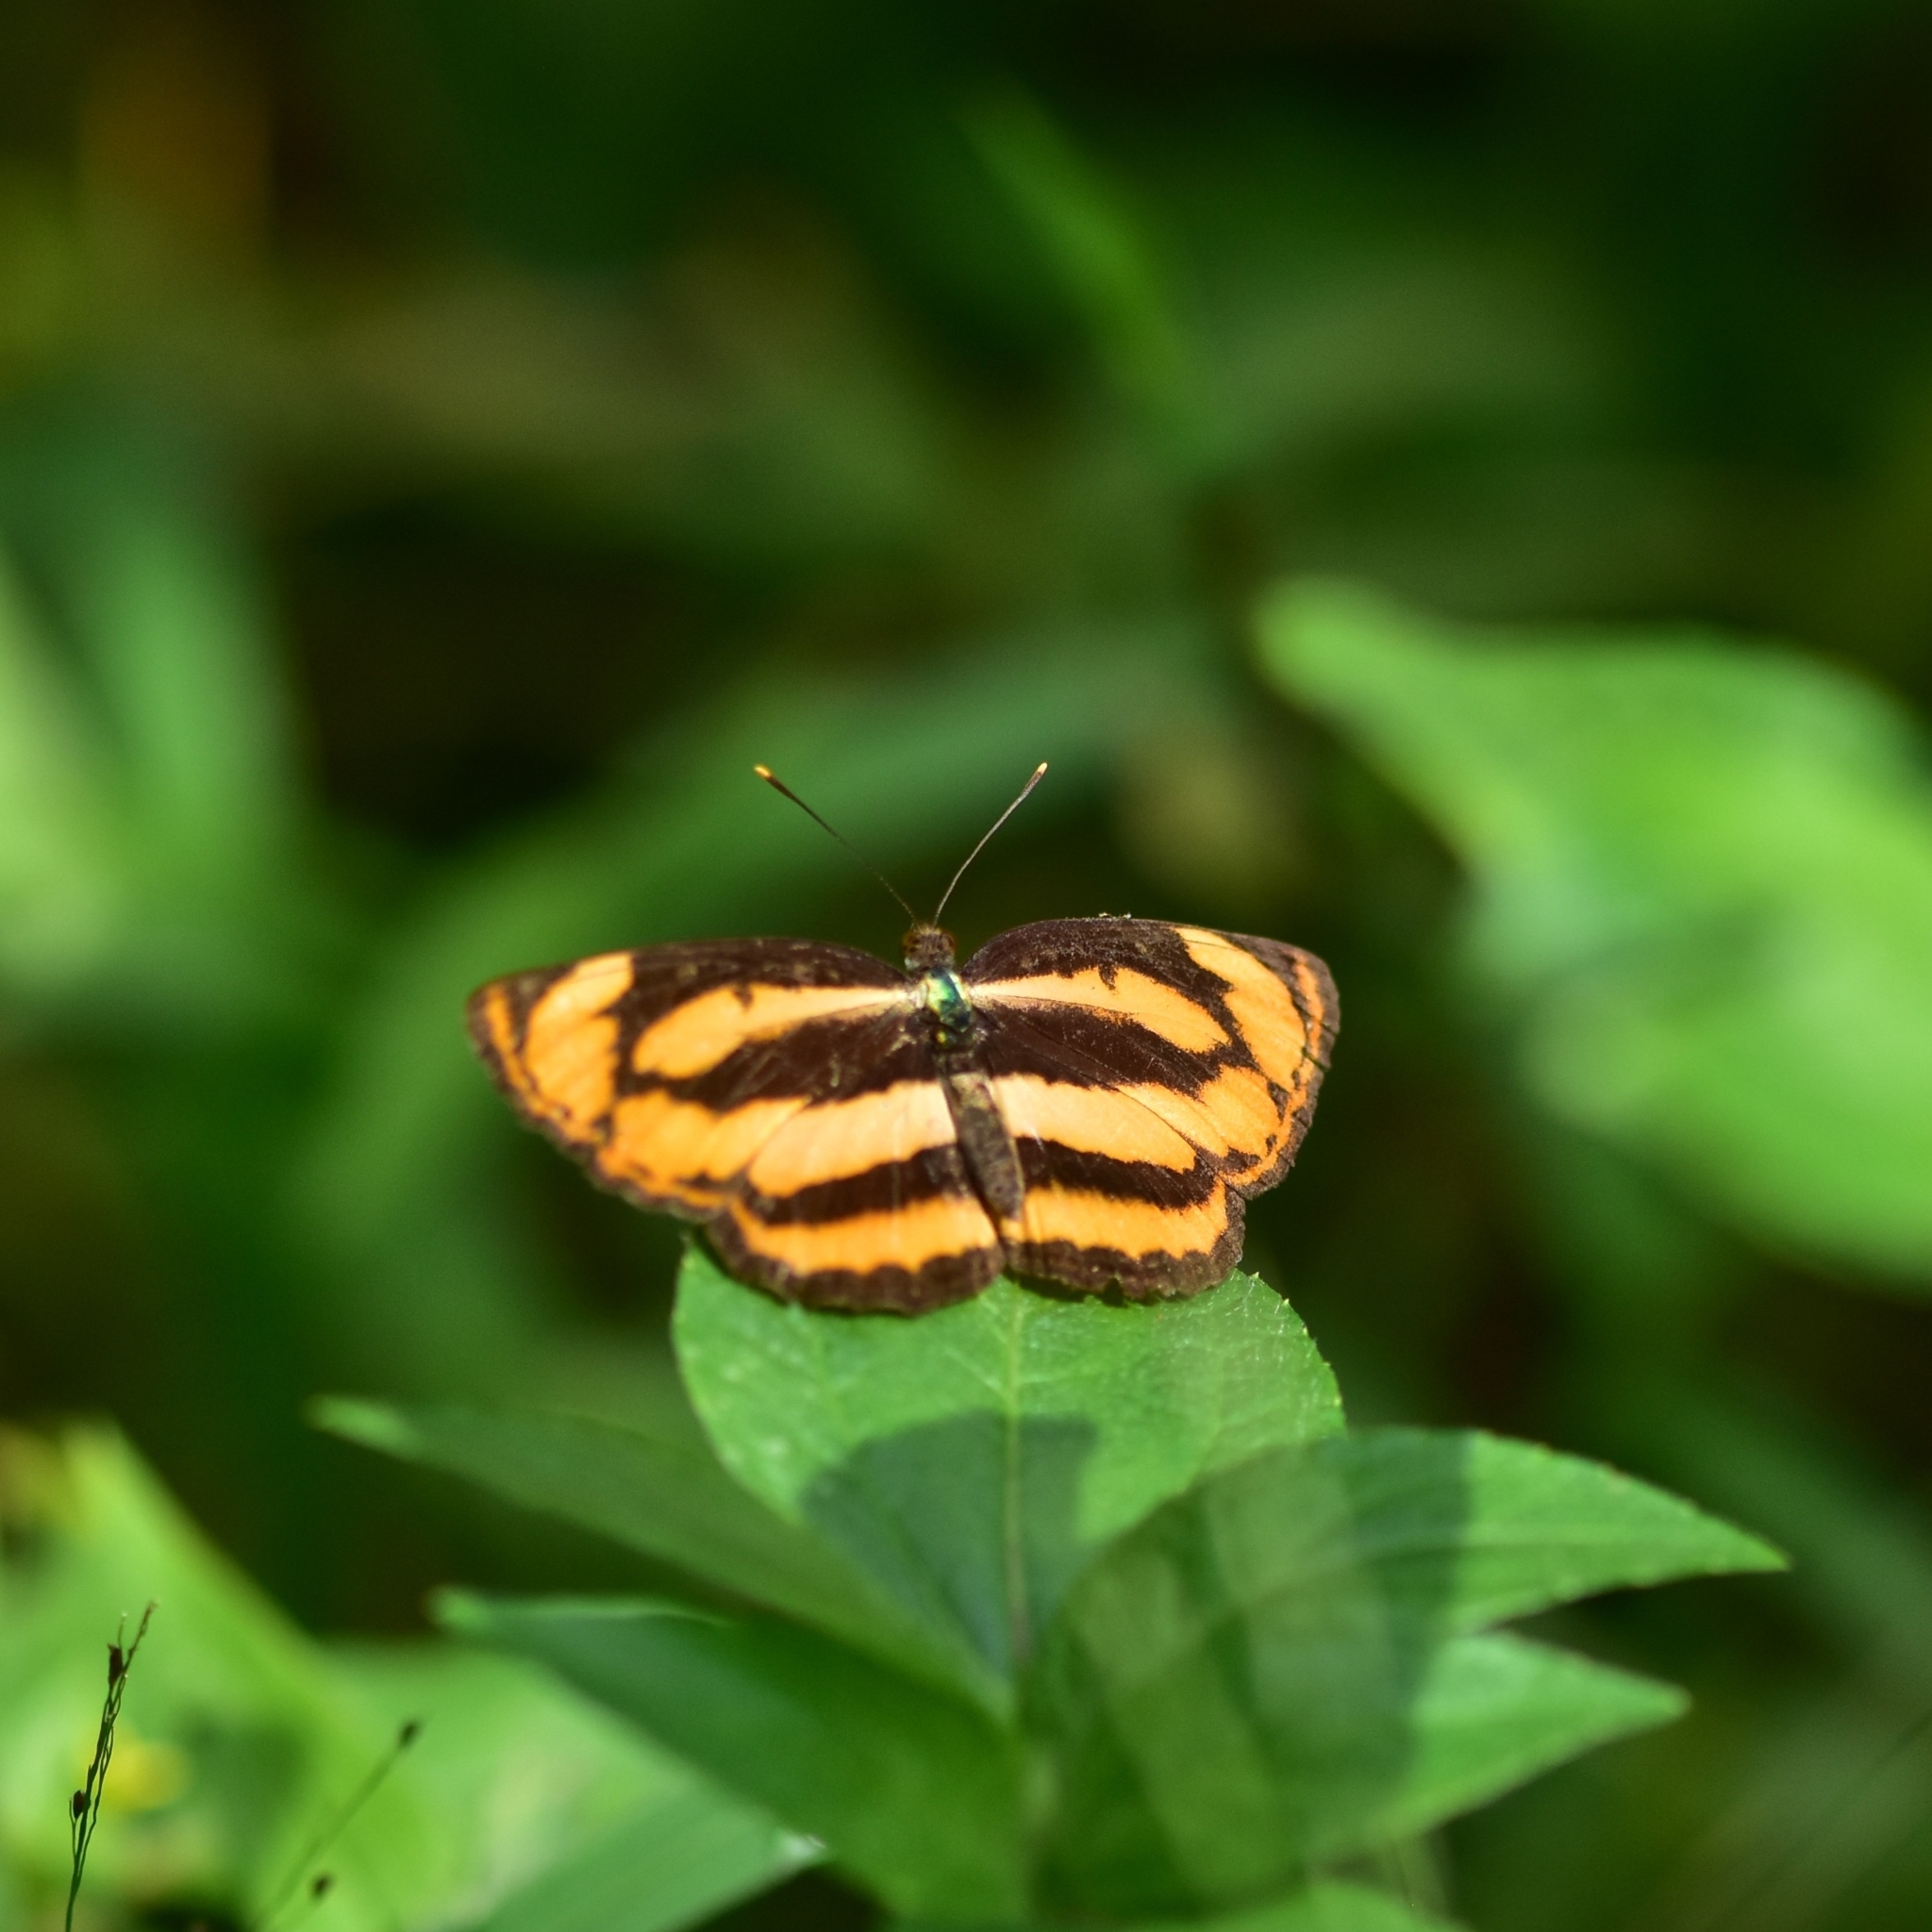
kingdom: Animalia
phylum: Arthropoda
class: Insecta
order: Lepidoptera
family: Nymphalidae
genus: Pantoporia
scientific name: Pantoporia hordonia
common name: Common lascar
